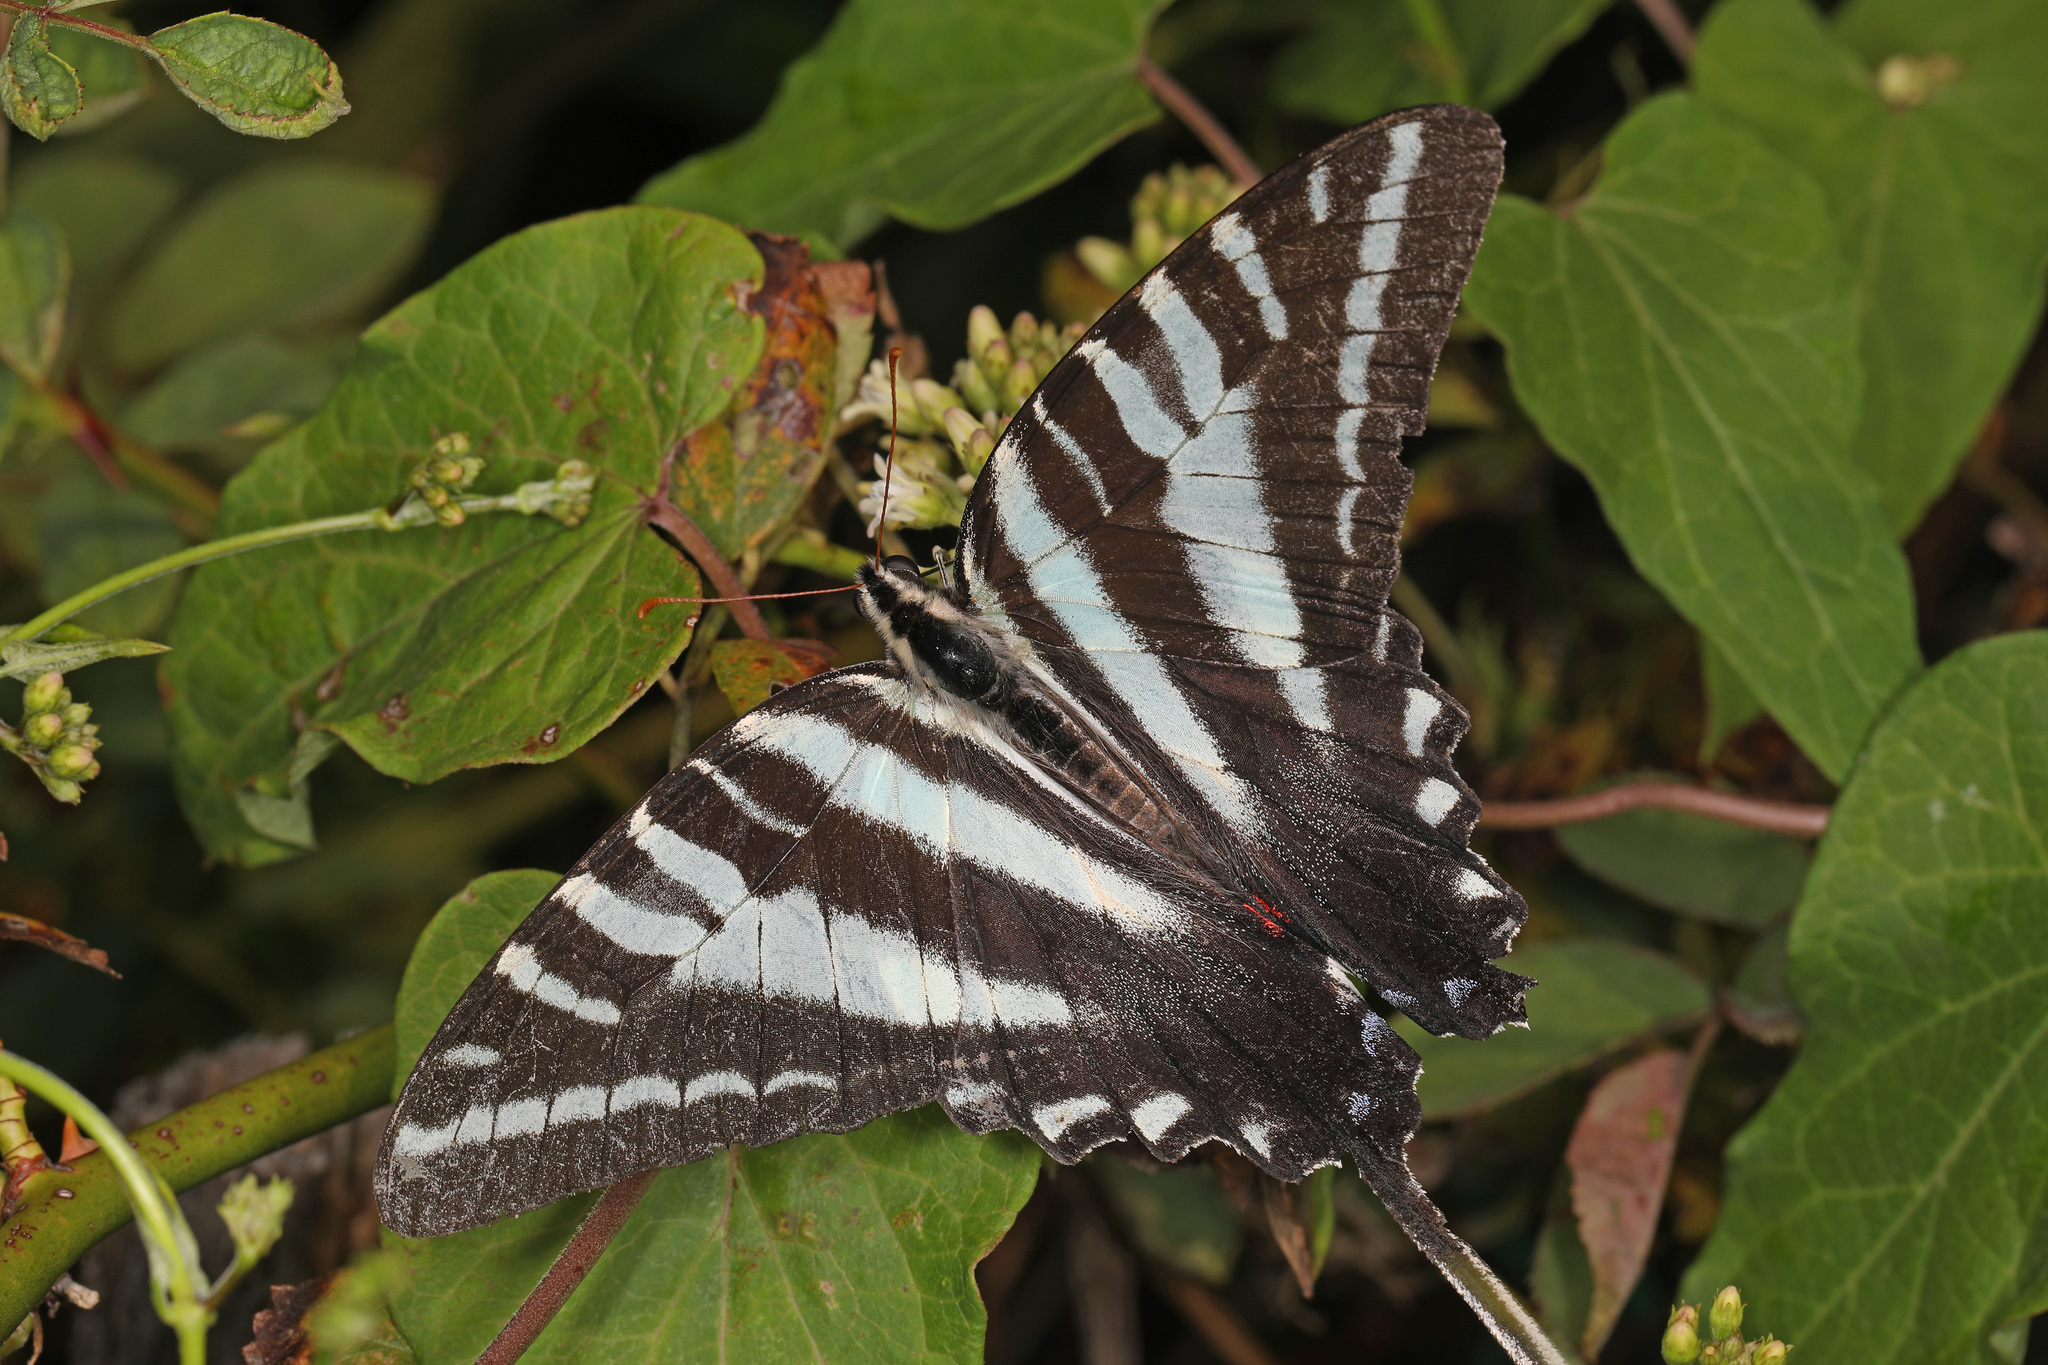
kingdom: Animalia
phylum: Arthropoda
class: Insecta
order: Lepidoptera
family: Papilionidae
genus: Protographium
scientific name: Protographium marcellus
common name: Zebra swallowtail
